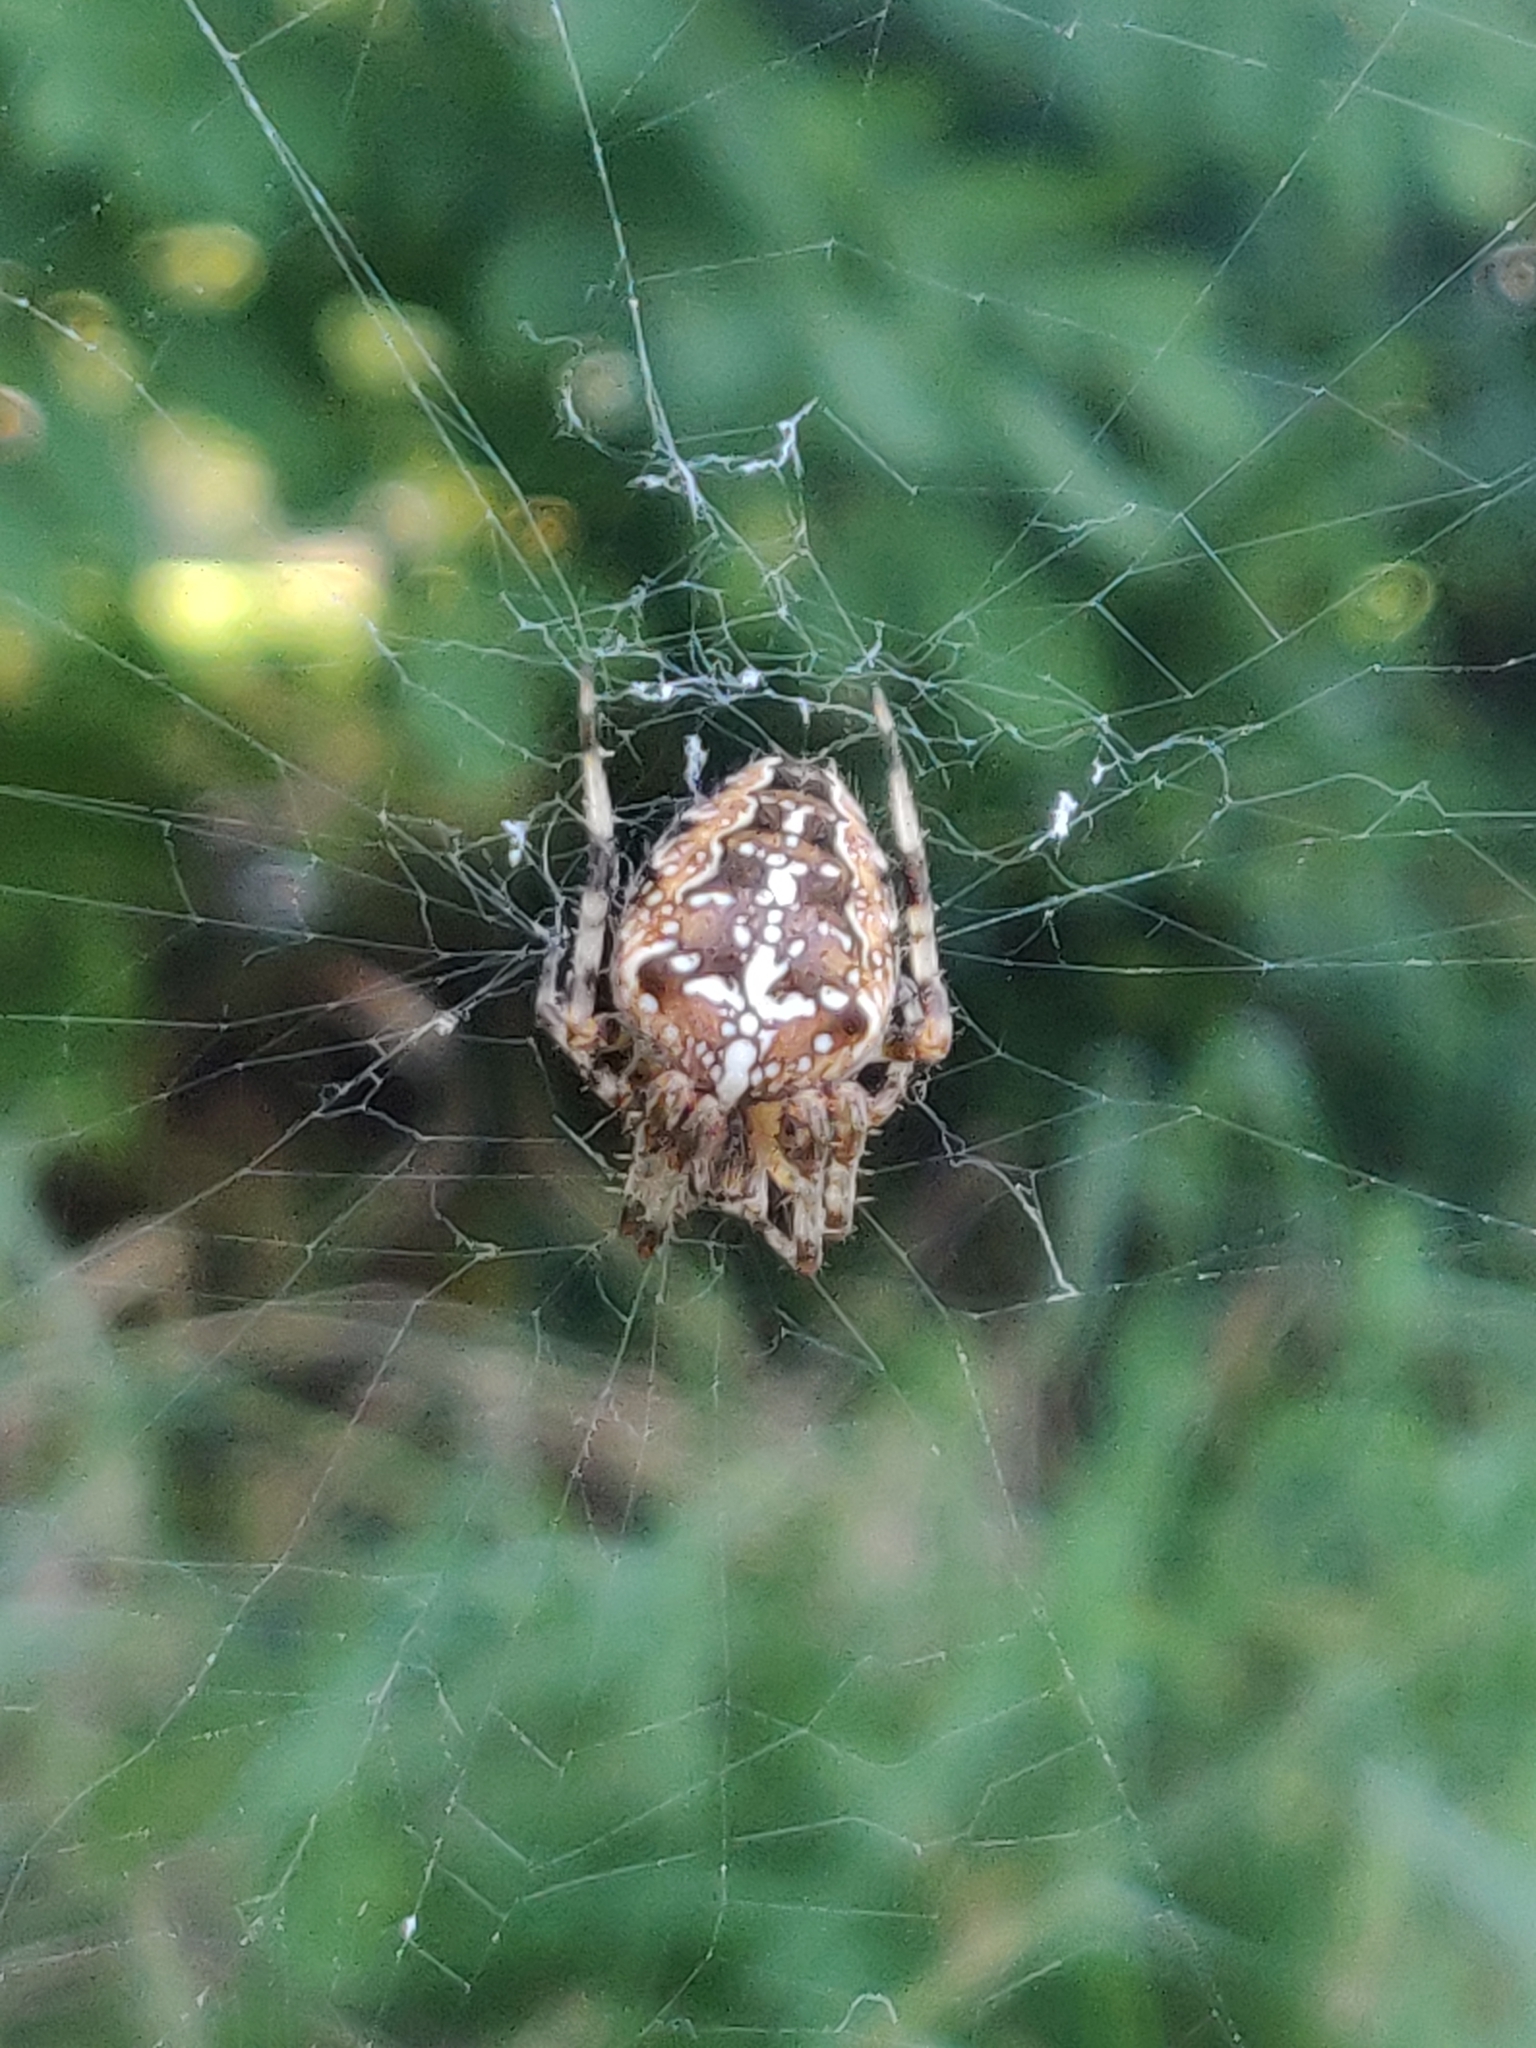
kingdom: Animalia
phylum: Arthropoda
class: Arachnida
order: Araneae
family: Araneidae
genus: Araneus
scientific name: Araneus diadematus
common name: Cross orbweaver
